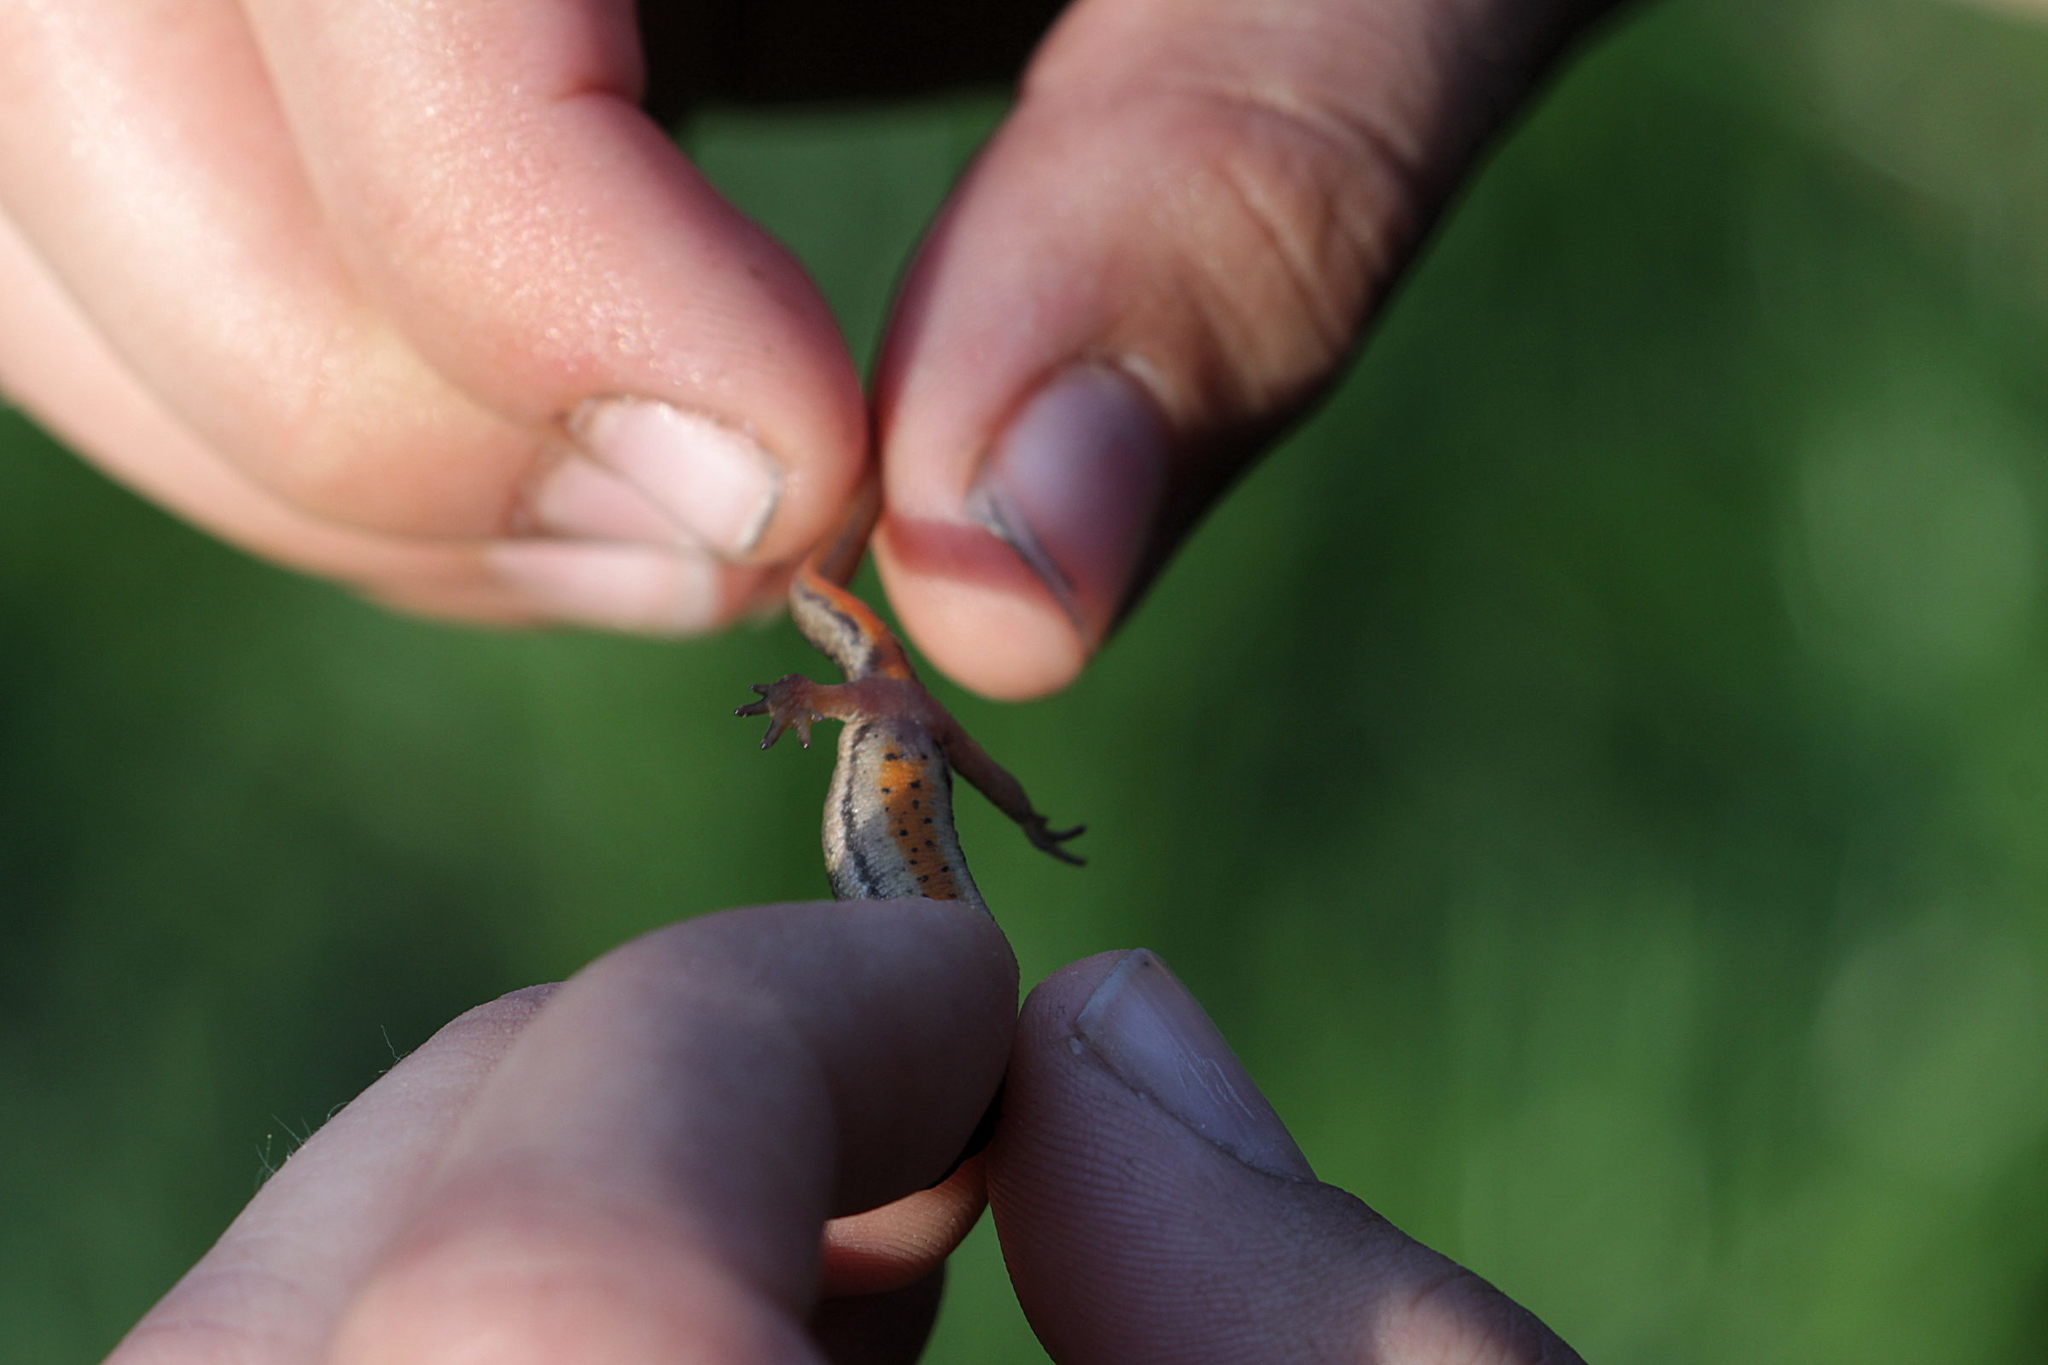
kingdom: Animalia
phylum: Chordata
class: Amphibia
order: Caudata
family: Salamandridae
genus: Lissotriton
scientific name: Lissotriton vulgaris
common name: Smooth newt
